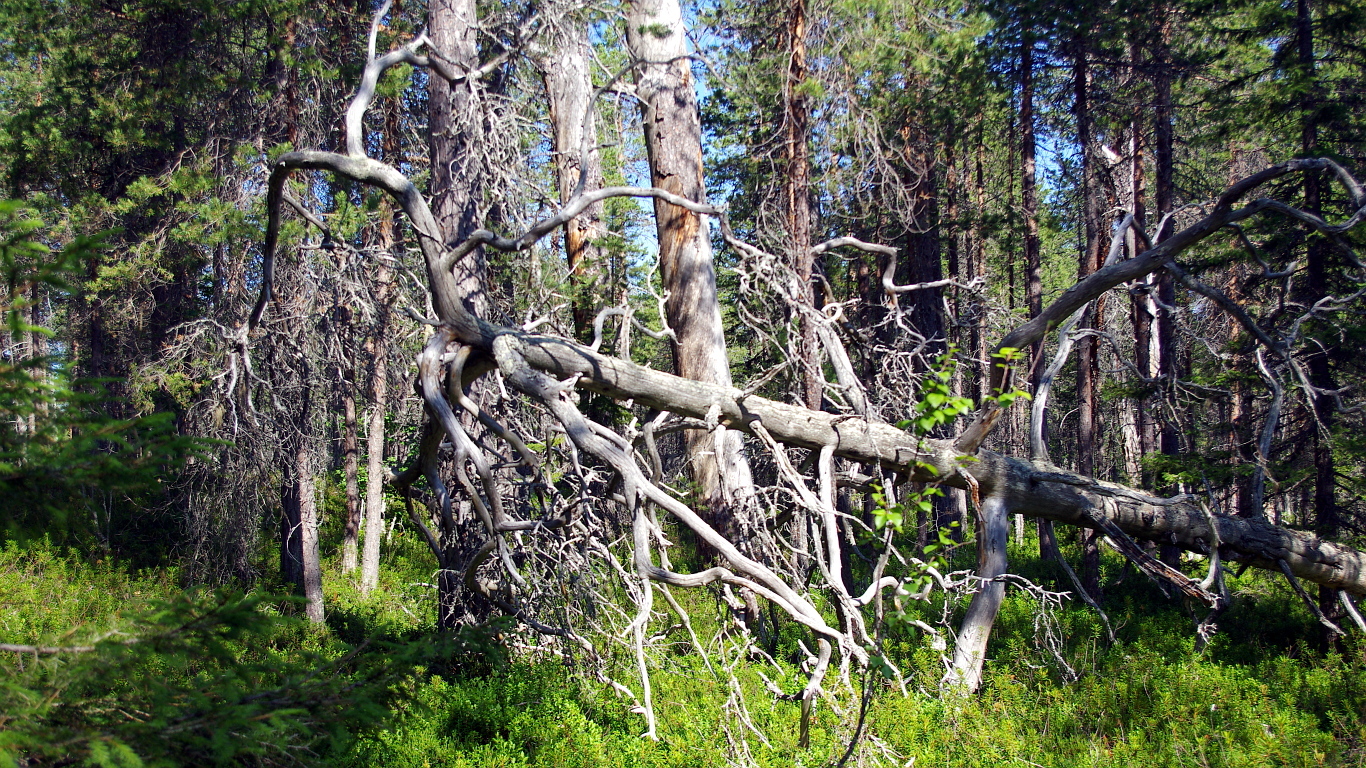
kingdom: Plantae
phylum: Tracheophyta
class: Pinopsida
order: Pinales
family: Pinaceae
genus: Pinus
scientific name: Pinus sylvestris
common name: Scots pine
